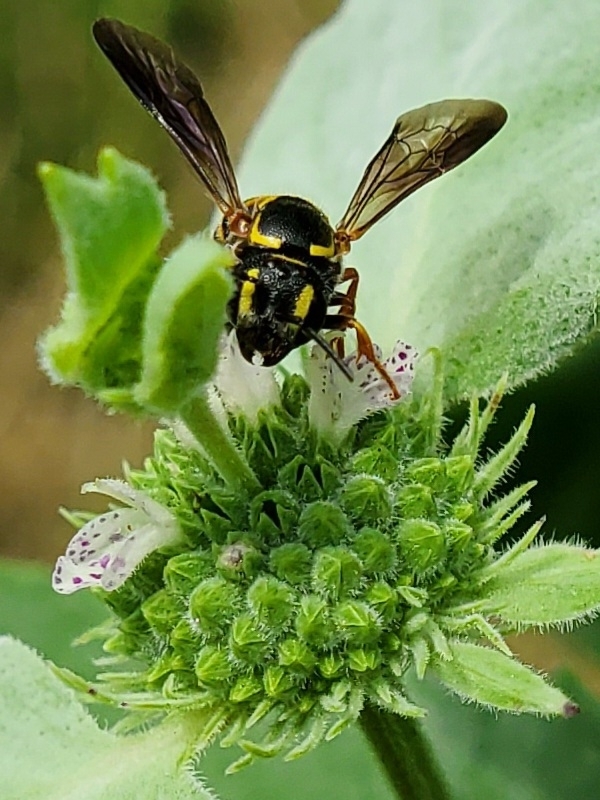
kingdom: Animalia
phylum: Arthropoda
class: Insecta
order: Hymenoptera
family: Megachilidae
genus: Stelis
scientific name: Stelis louisae
